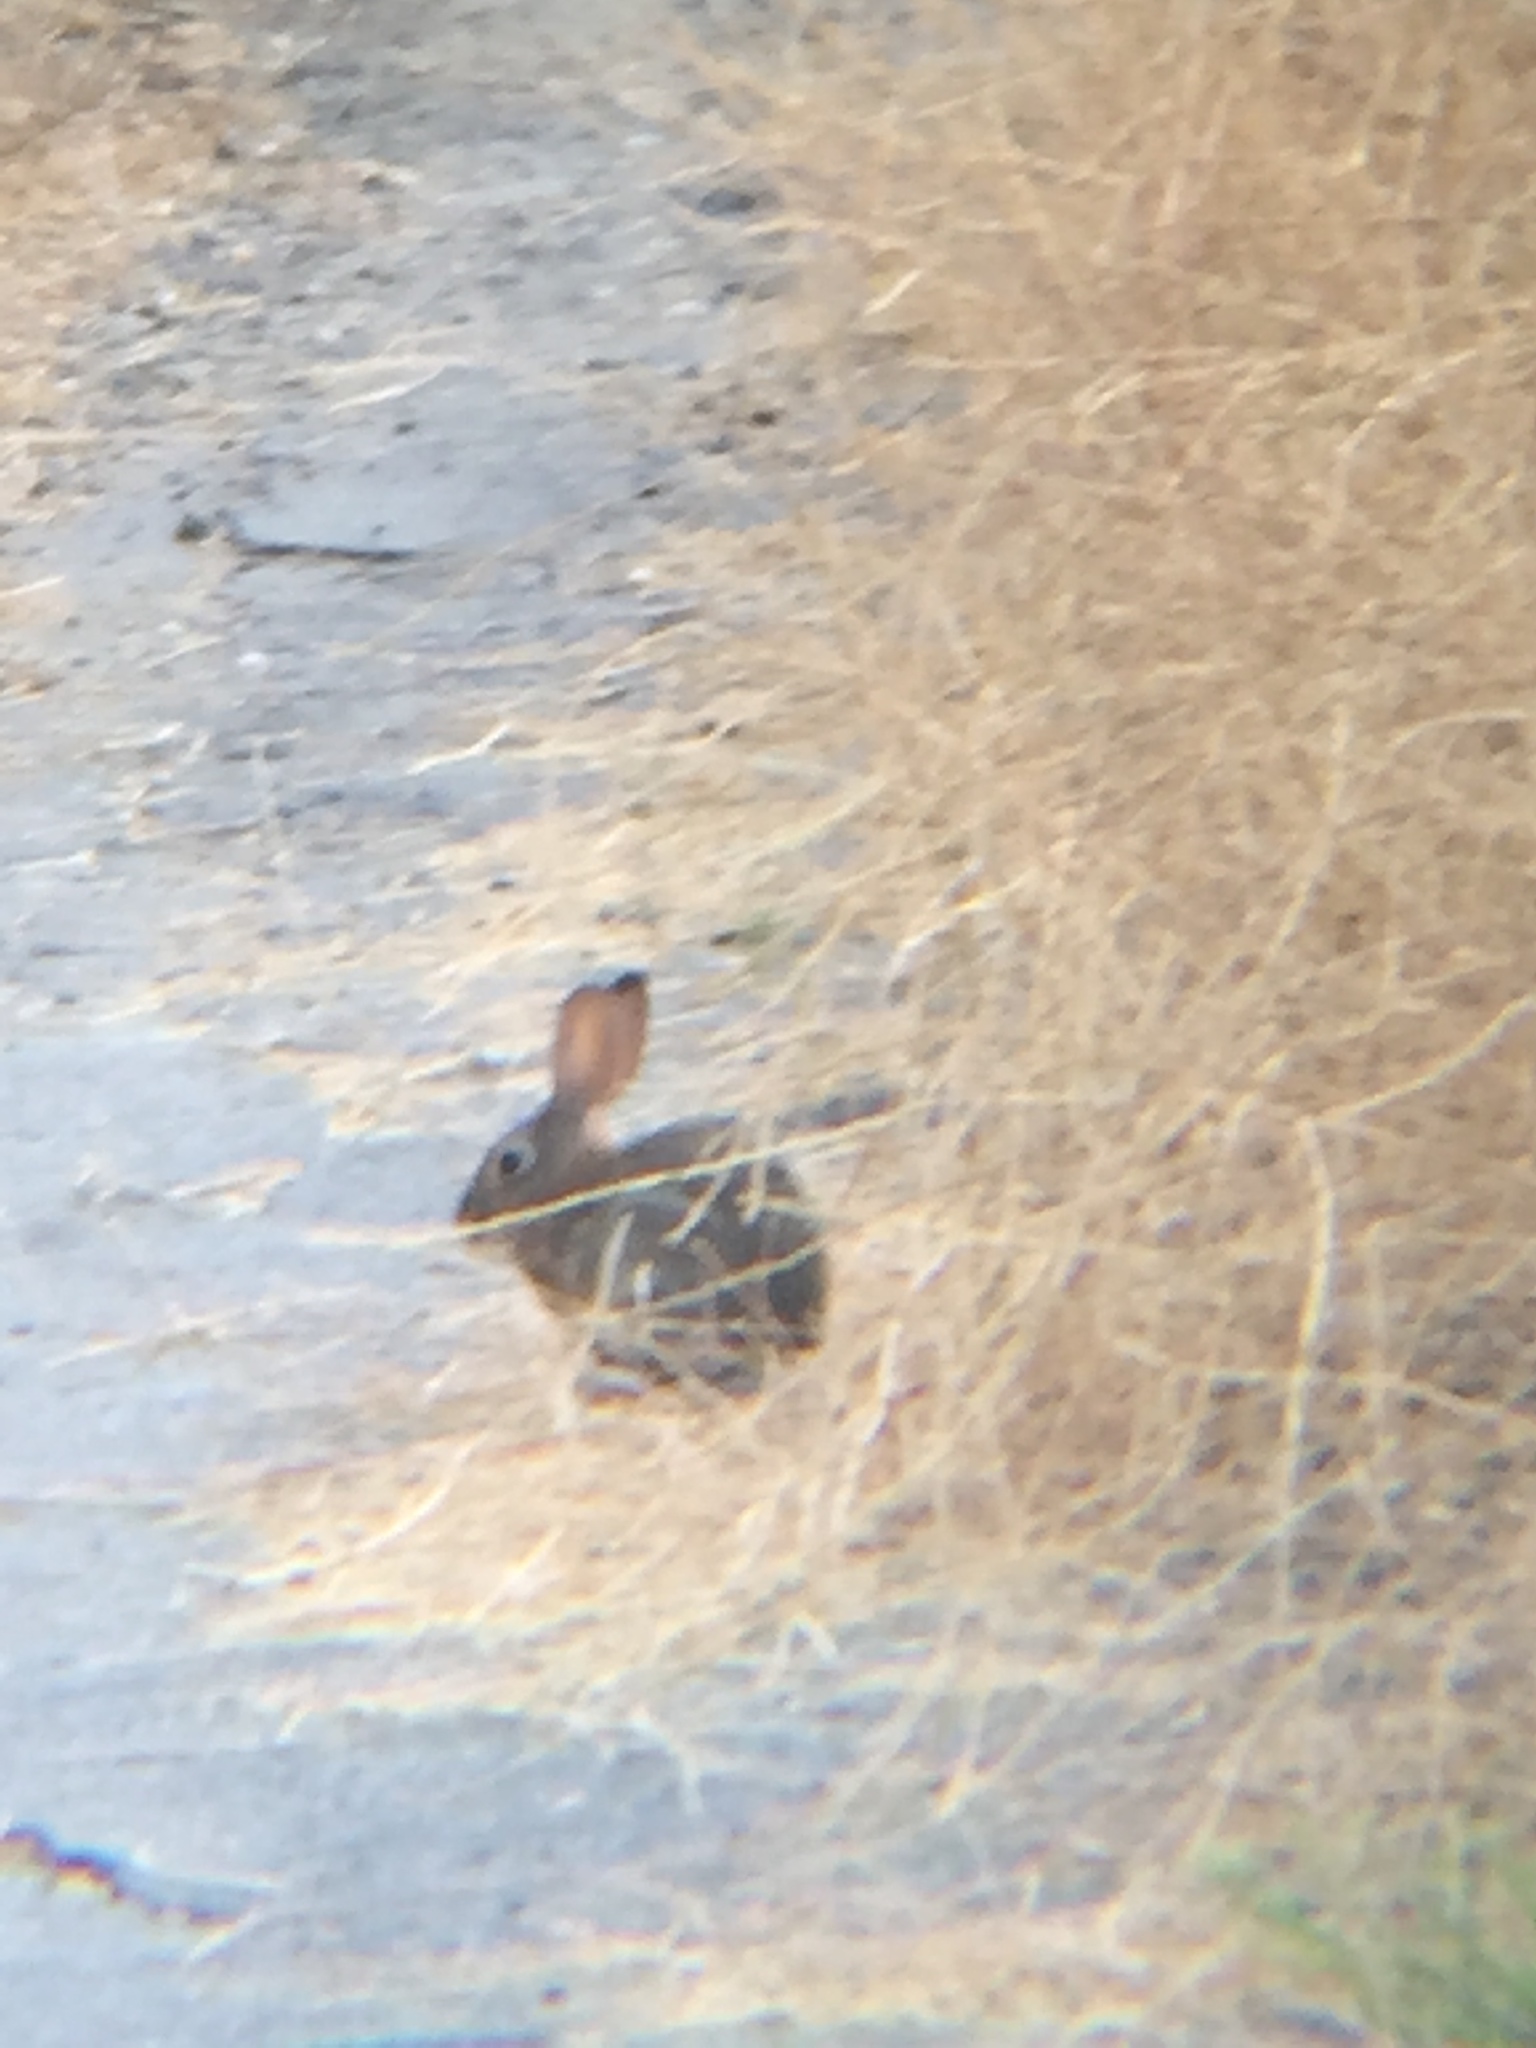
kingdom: Animalia
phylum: Chordata
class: Mammalia
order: Lagomorpha
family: Leporidae
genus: Sylvilagus
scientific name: Sylvilagus audubonii
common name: Desert cottontail
